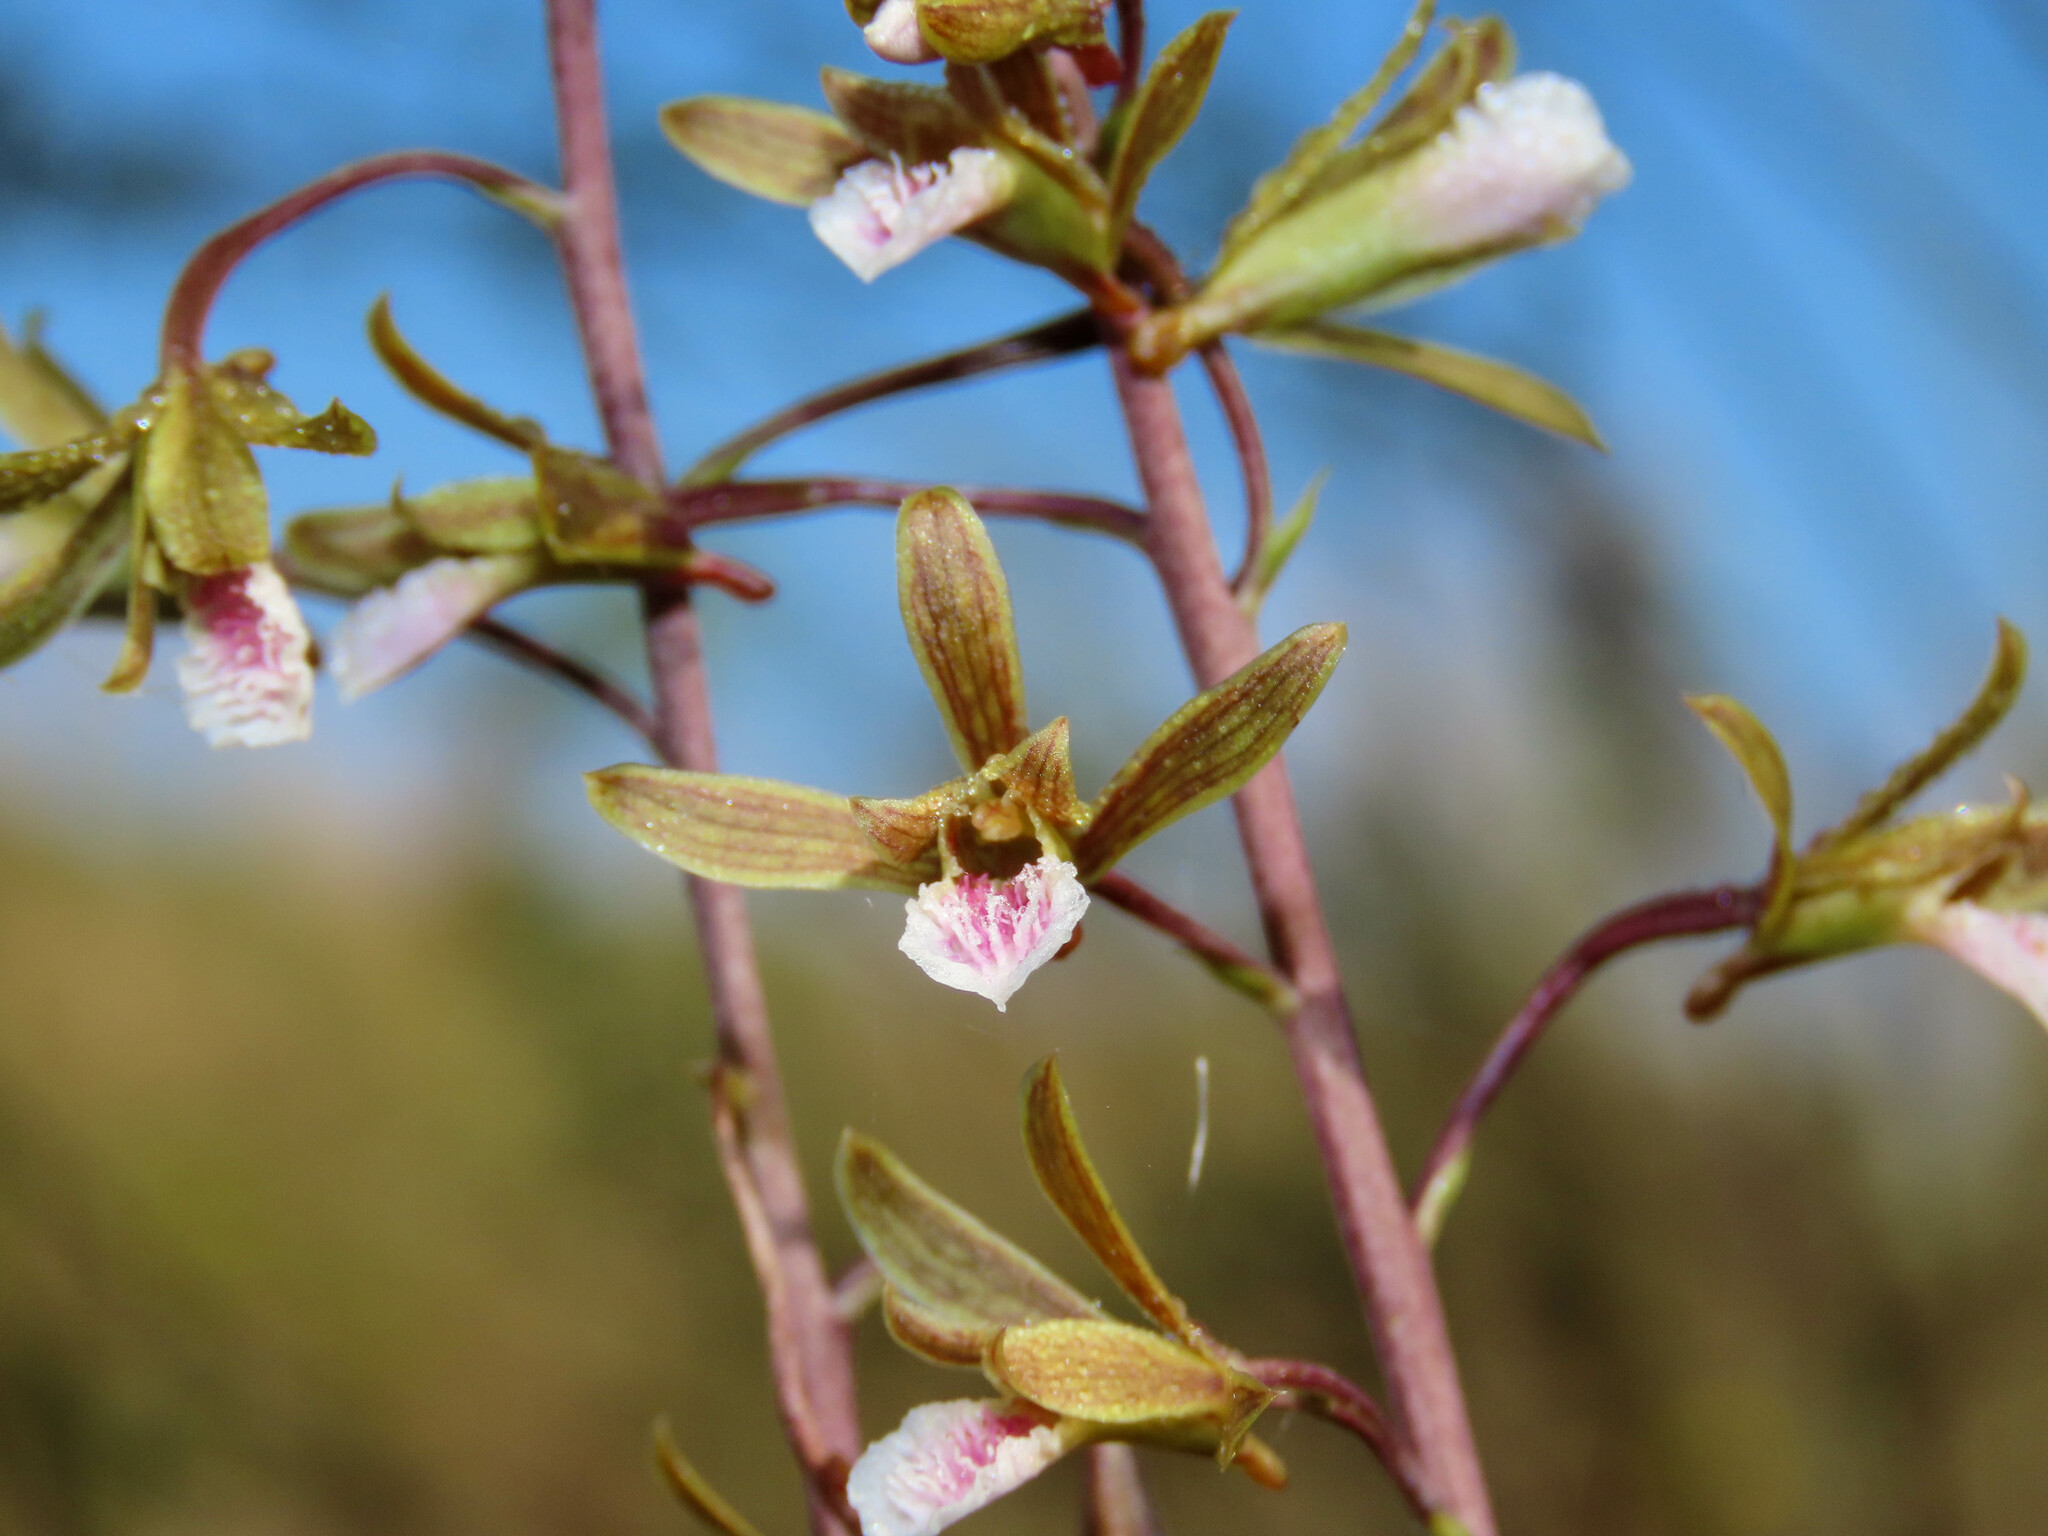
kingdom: Plantae
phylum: Tracheophyta
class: Liliopsida
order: Asparagales
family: Orchidaceae
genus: Eulophia
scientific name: Eulophia graminea
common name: Orchid
